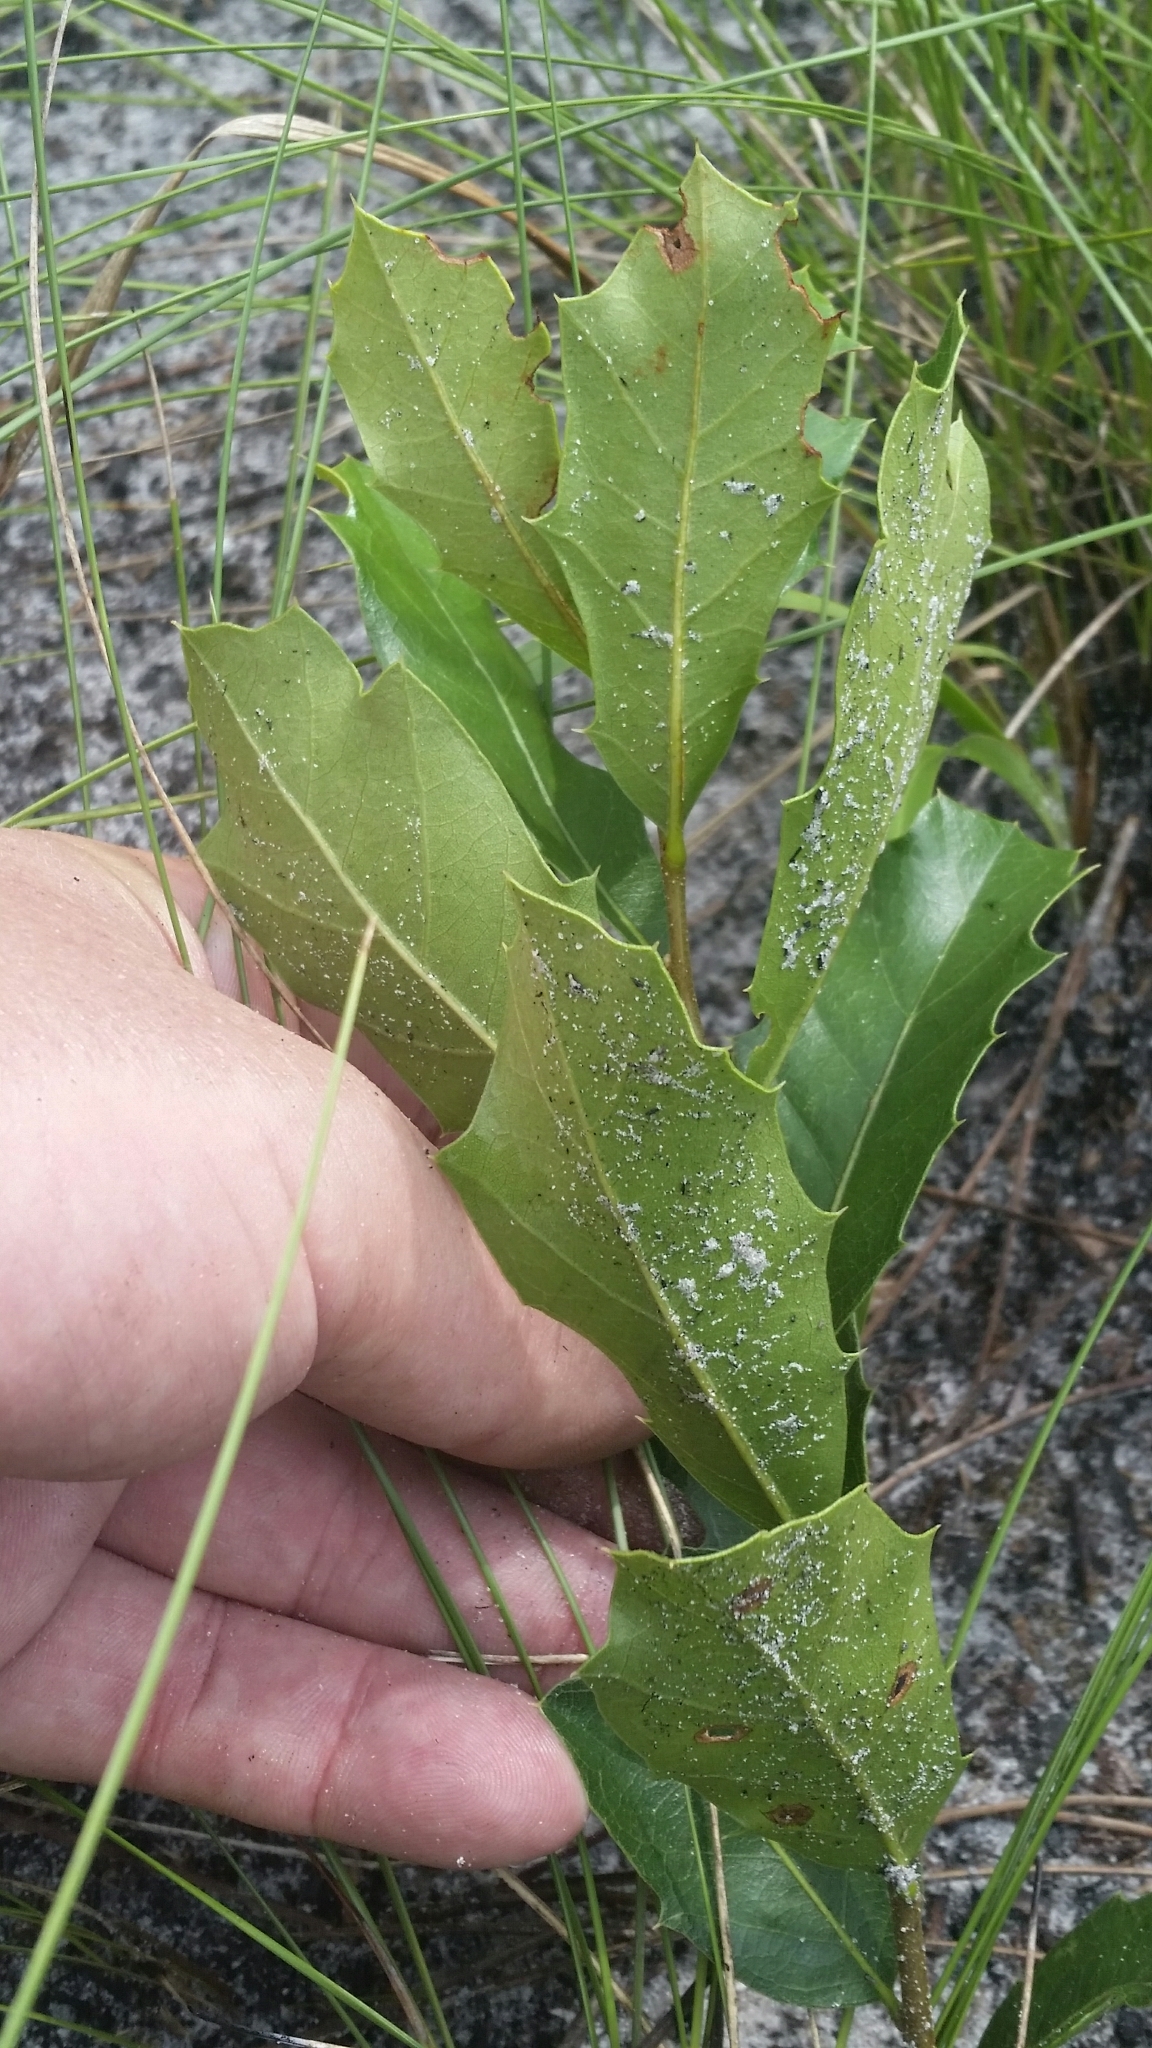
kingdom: Plantae
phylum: Tracheophyta
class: Magnoliopsida
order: Fagales
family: Fagaceae
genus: Quercus
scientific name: Quercus minima
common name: Dwarf live oak
